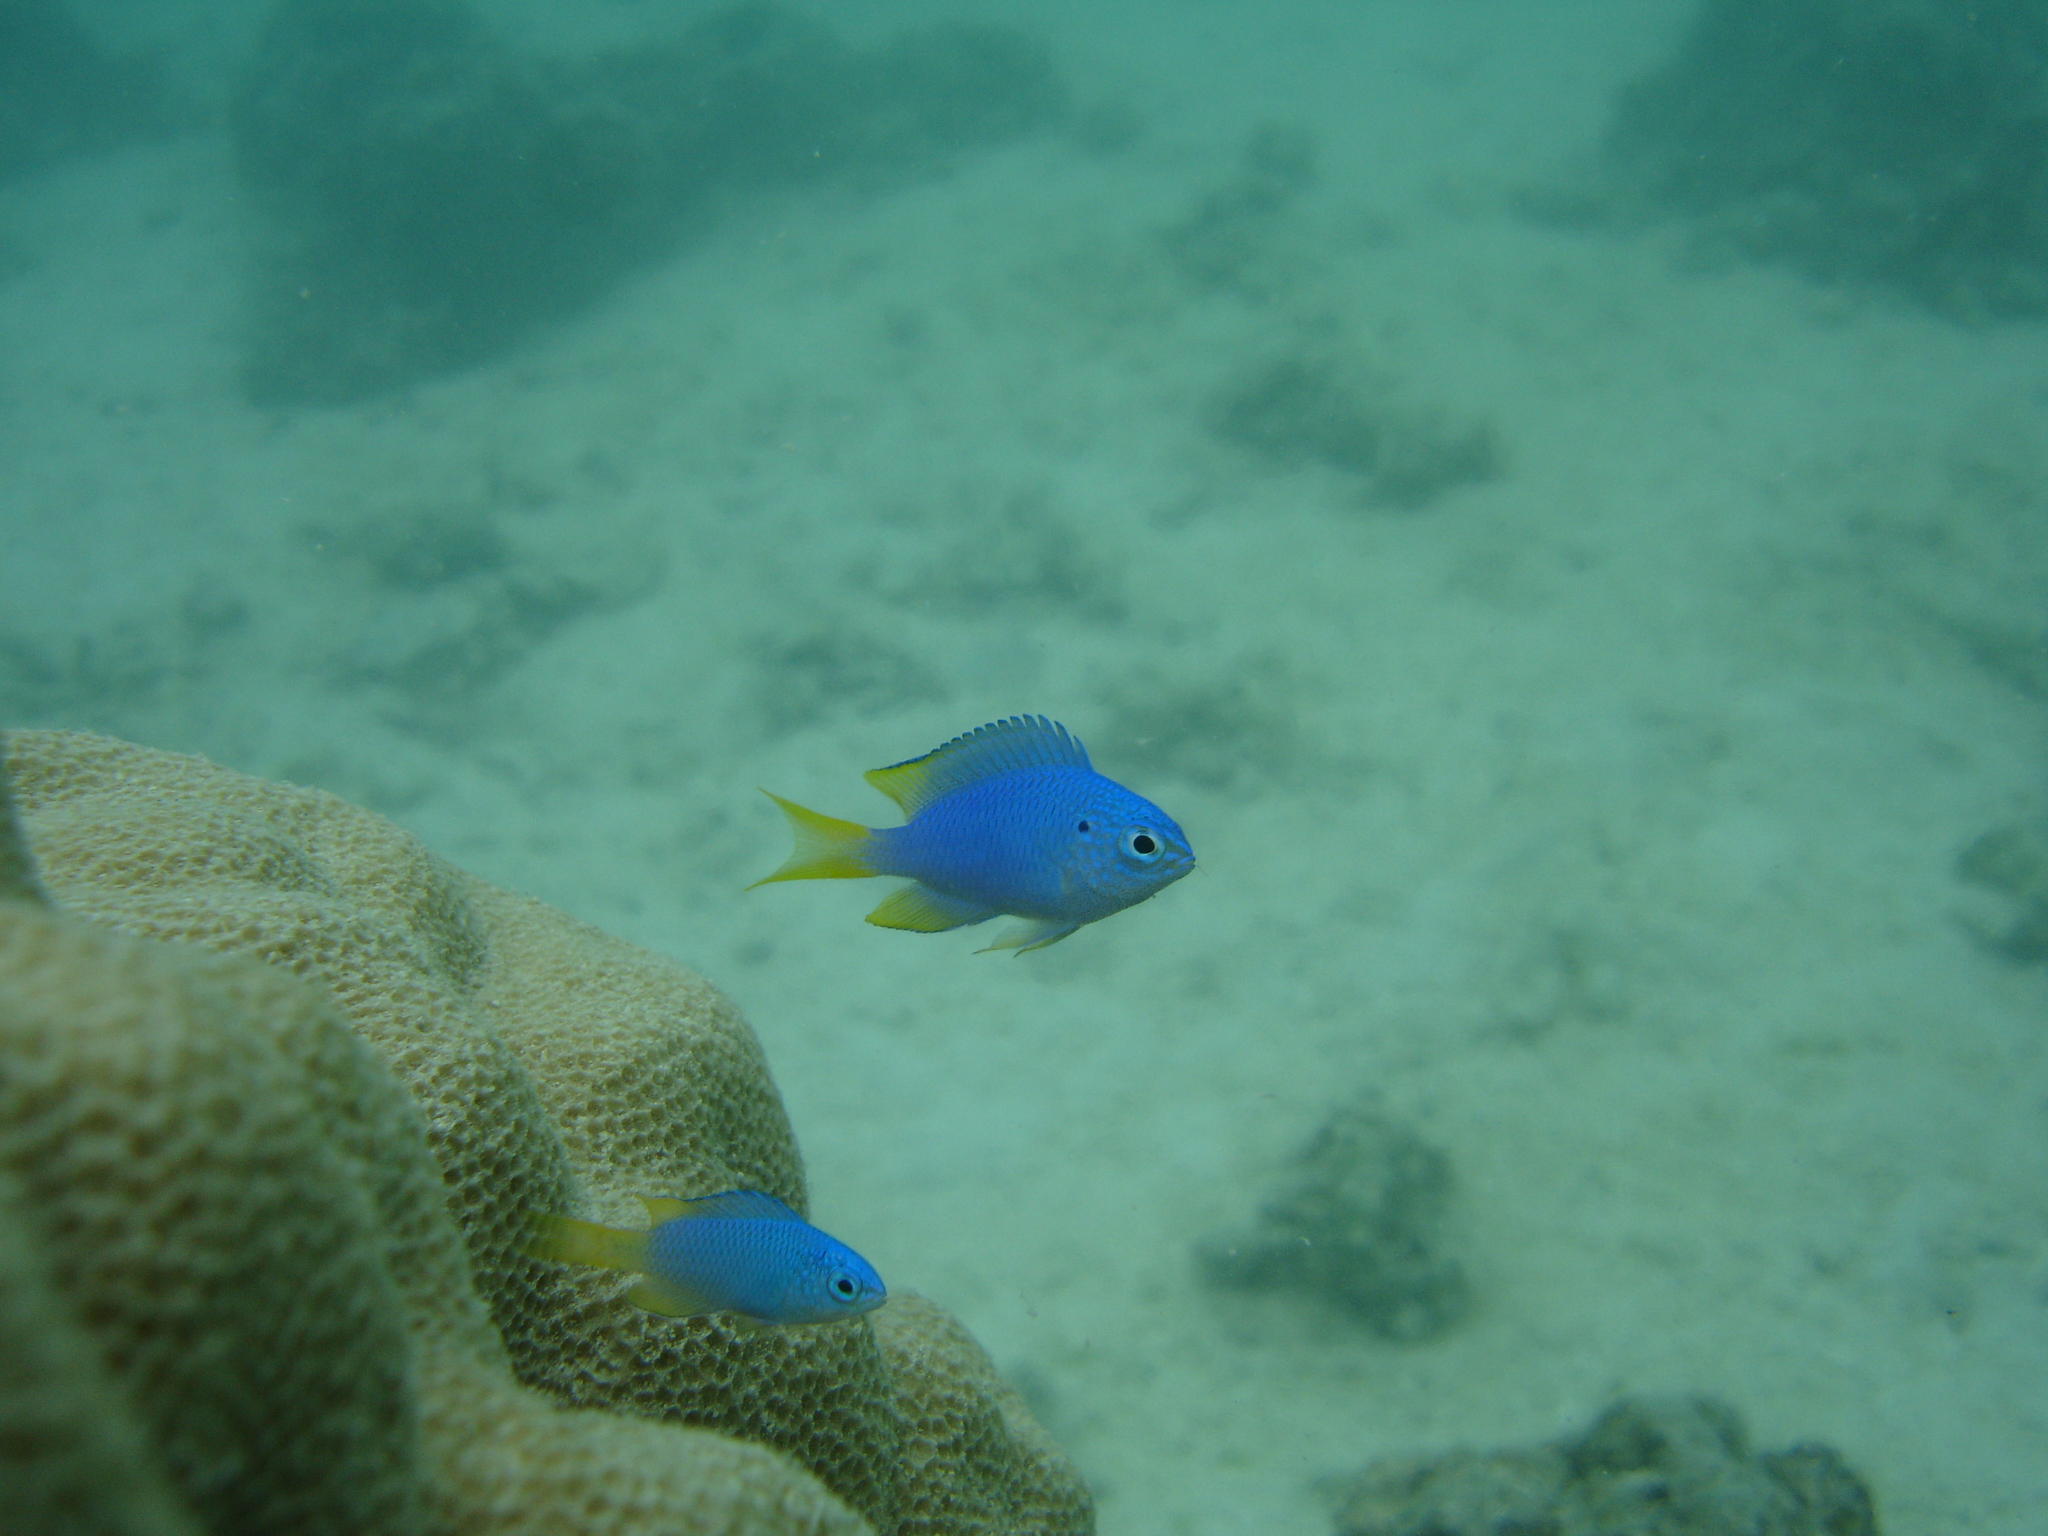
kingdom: Animalia
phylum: Chordata
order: Perciformes
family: Pomacentridae
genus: Pomacentrus
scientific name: Pomacentrus pavo
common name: Sapphire damsel
